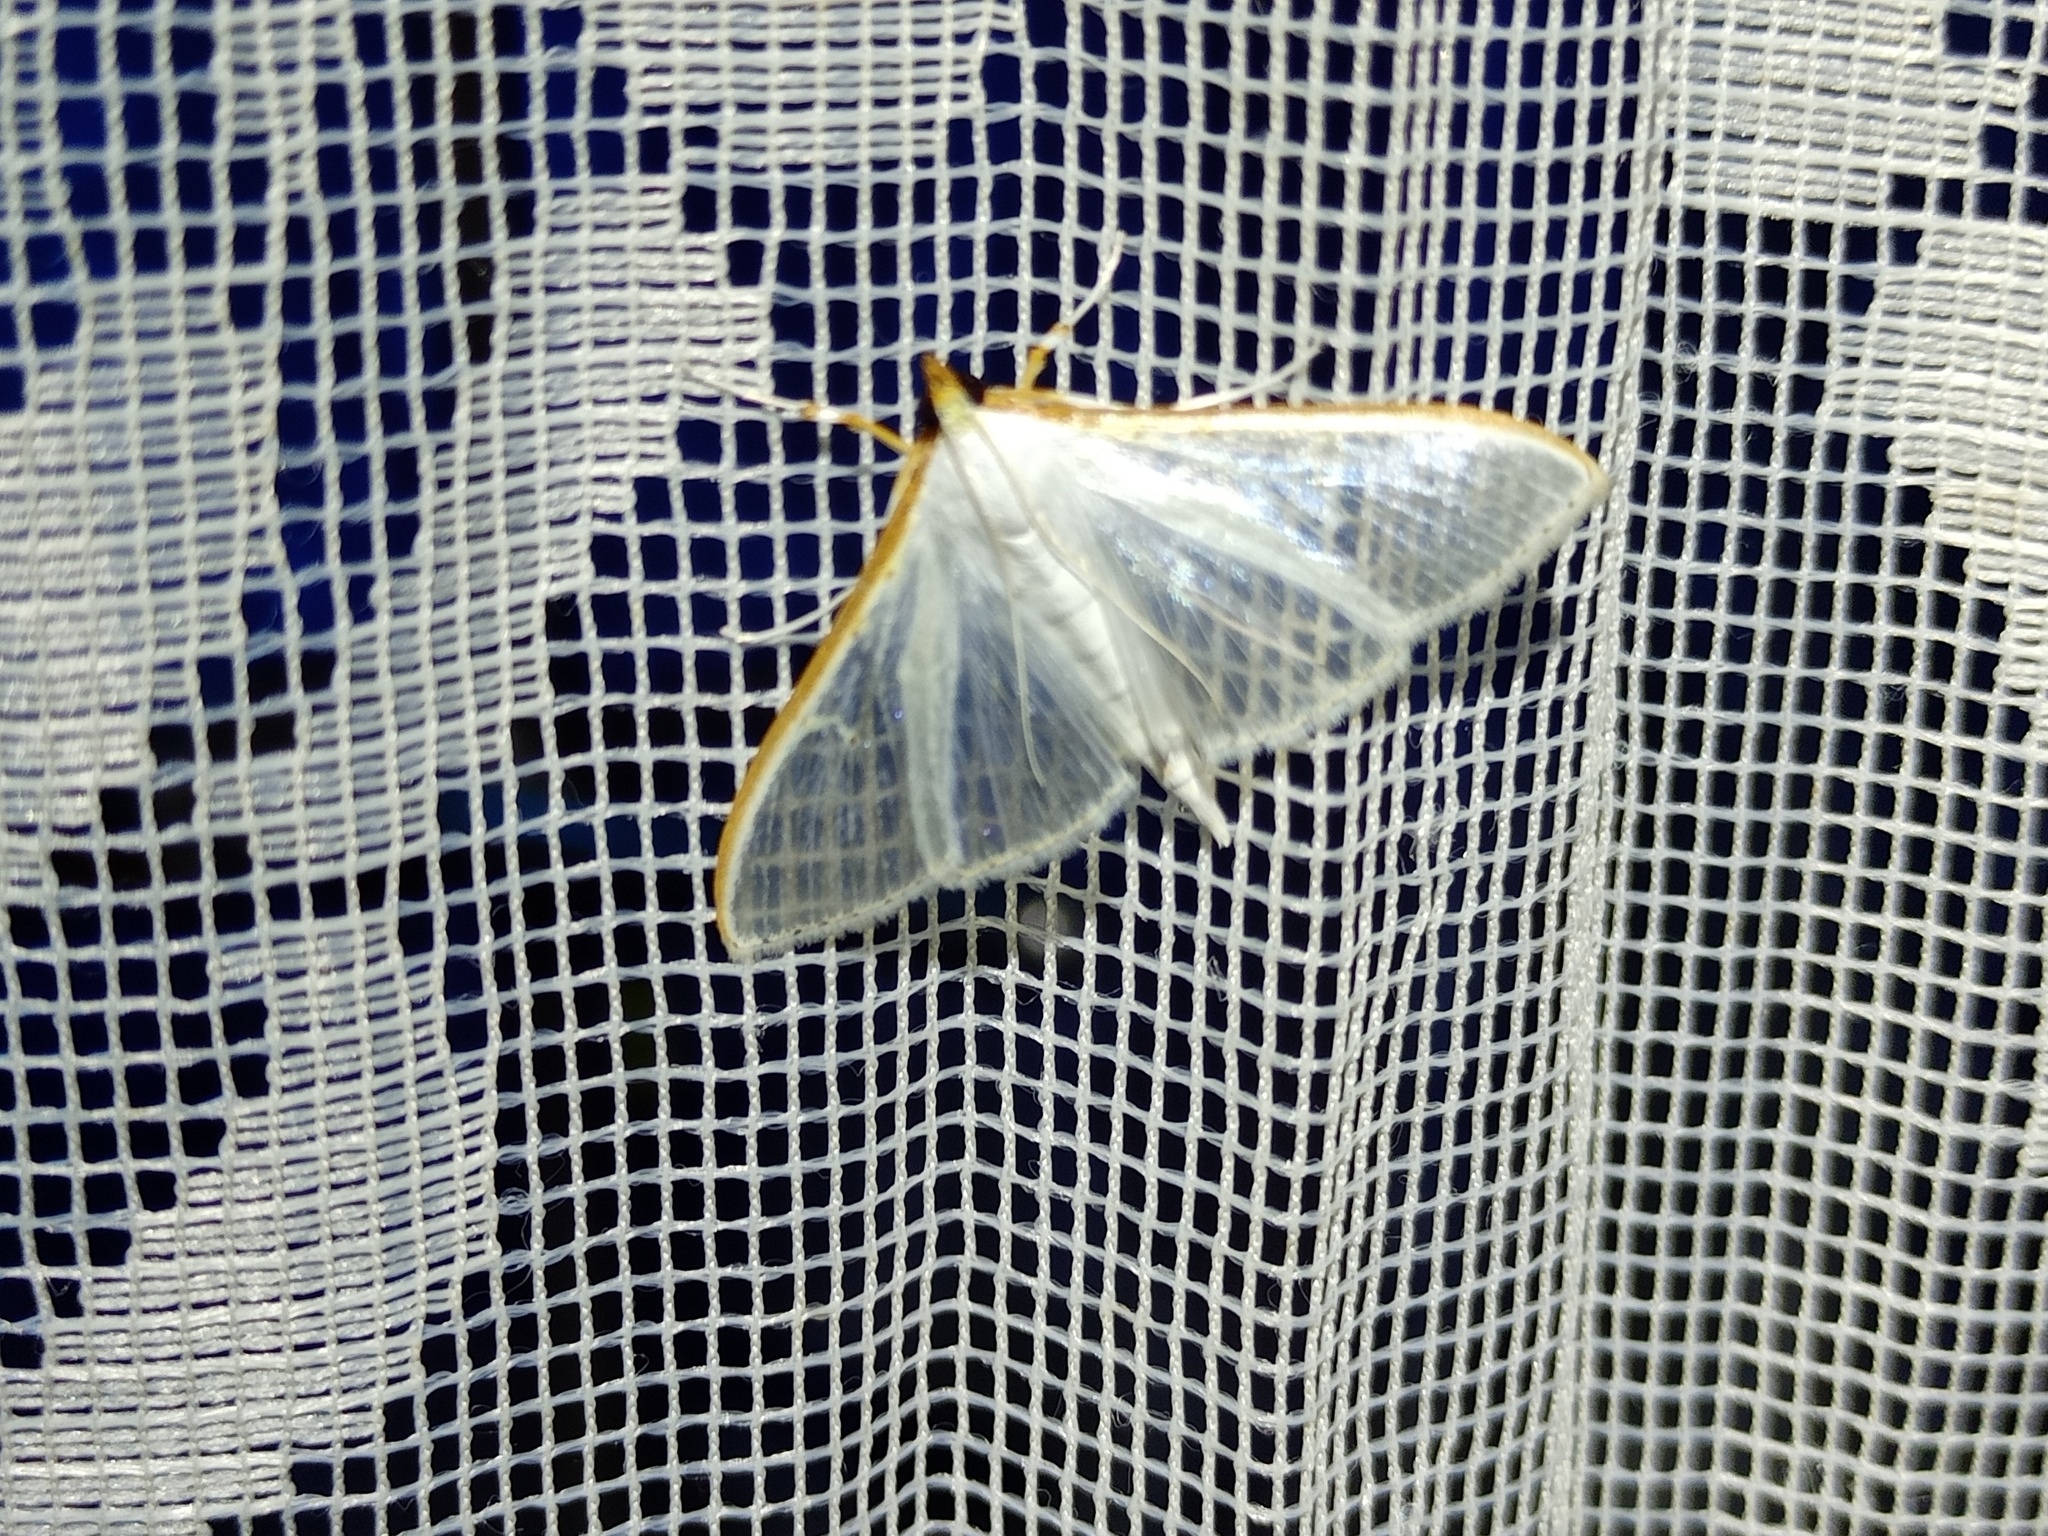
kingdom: Animalia
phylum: Arthropoda
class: Insecta
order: Lepidoptera
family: Crambidae
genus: Palpita
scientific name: Palpita vitrealis
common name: Olive-tree pearl
